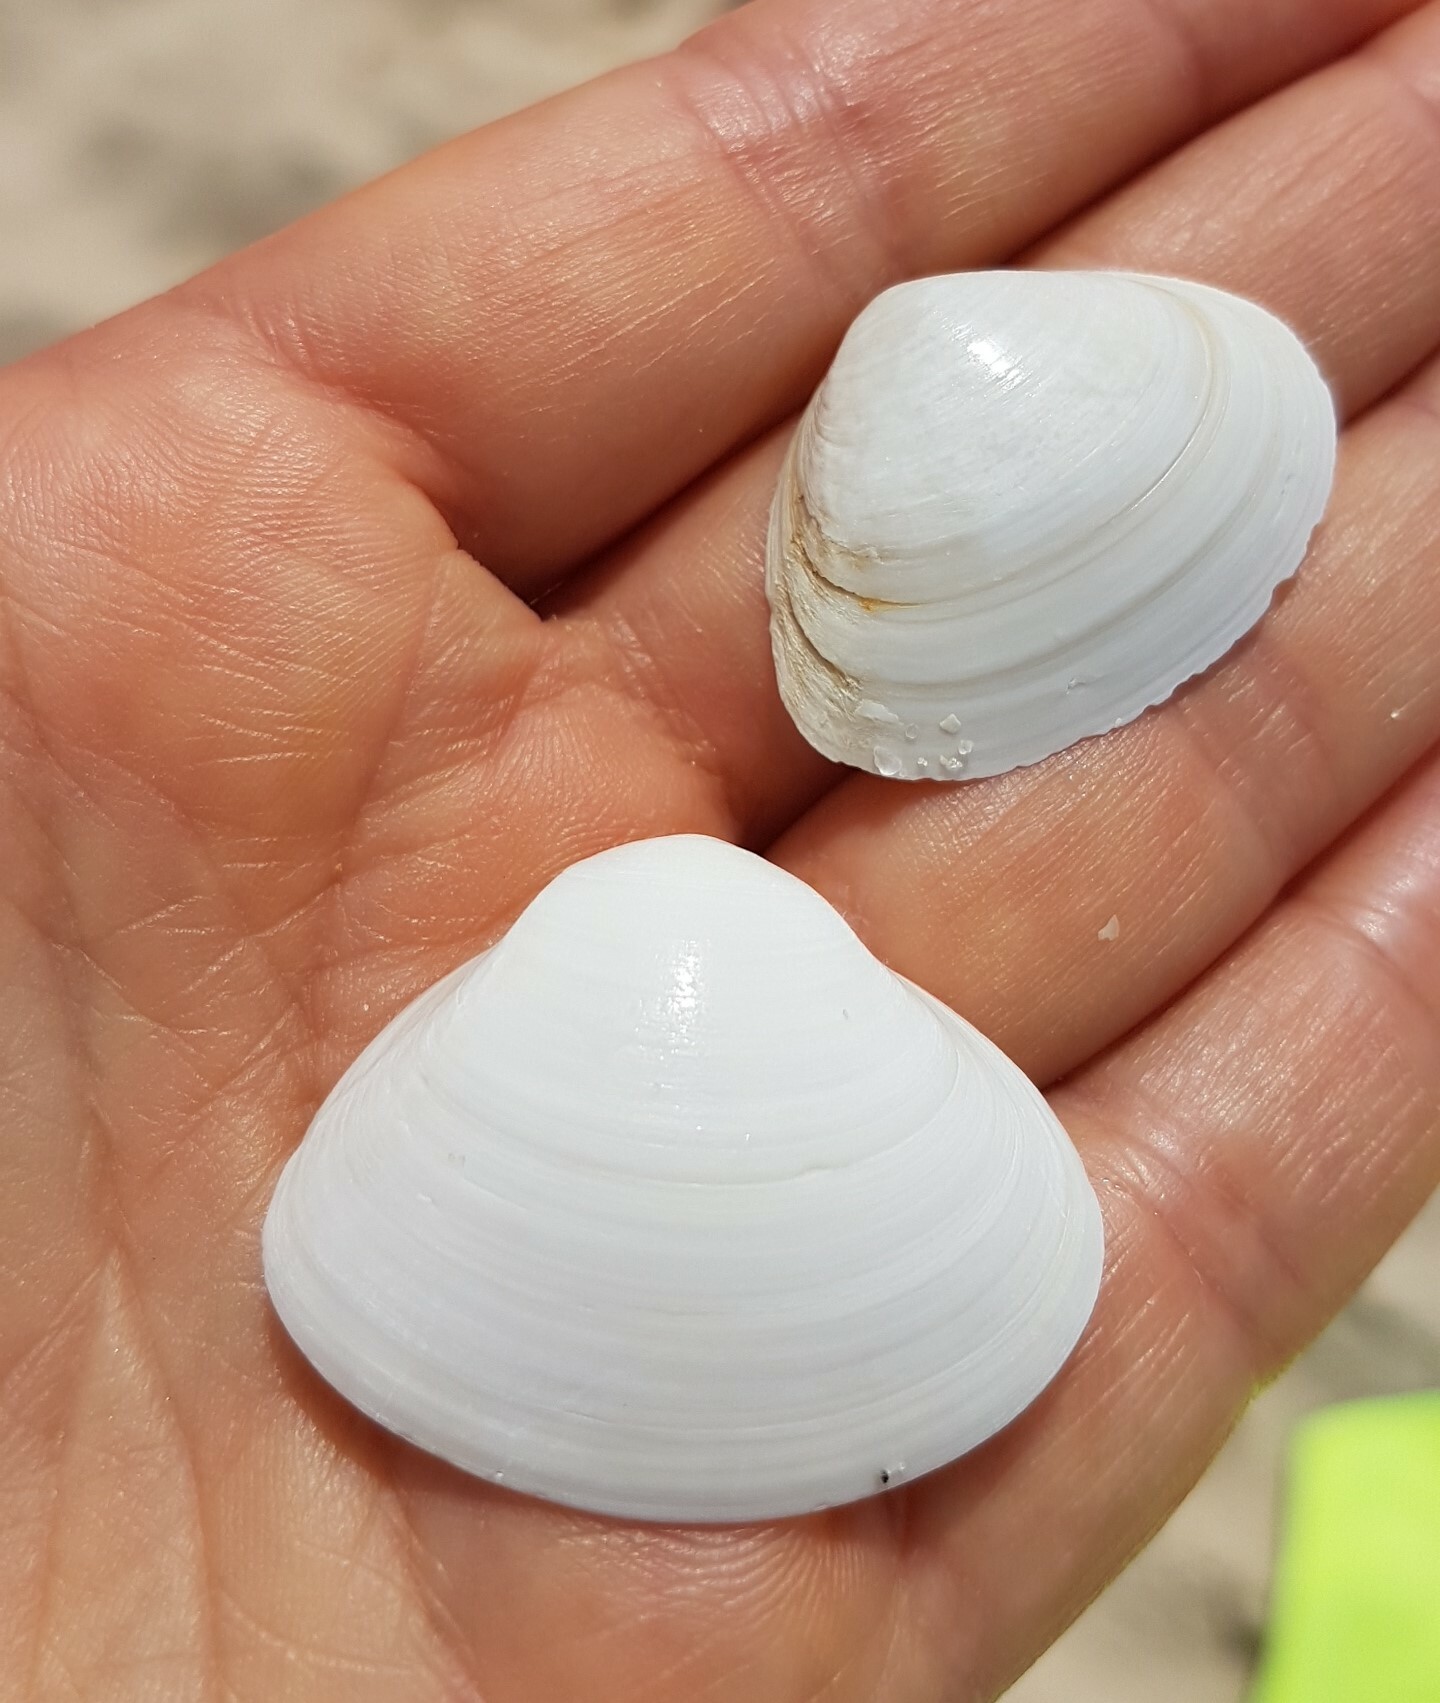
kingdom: Animalia
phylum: Mollusca
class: Bivalvia
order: Venerida
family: Mactridae
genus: Spisula
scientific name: Spisula solida
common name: Thick trough shell
